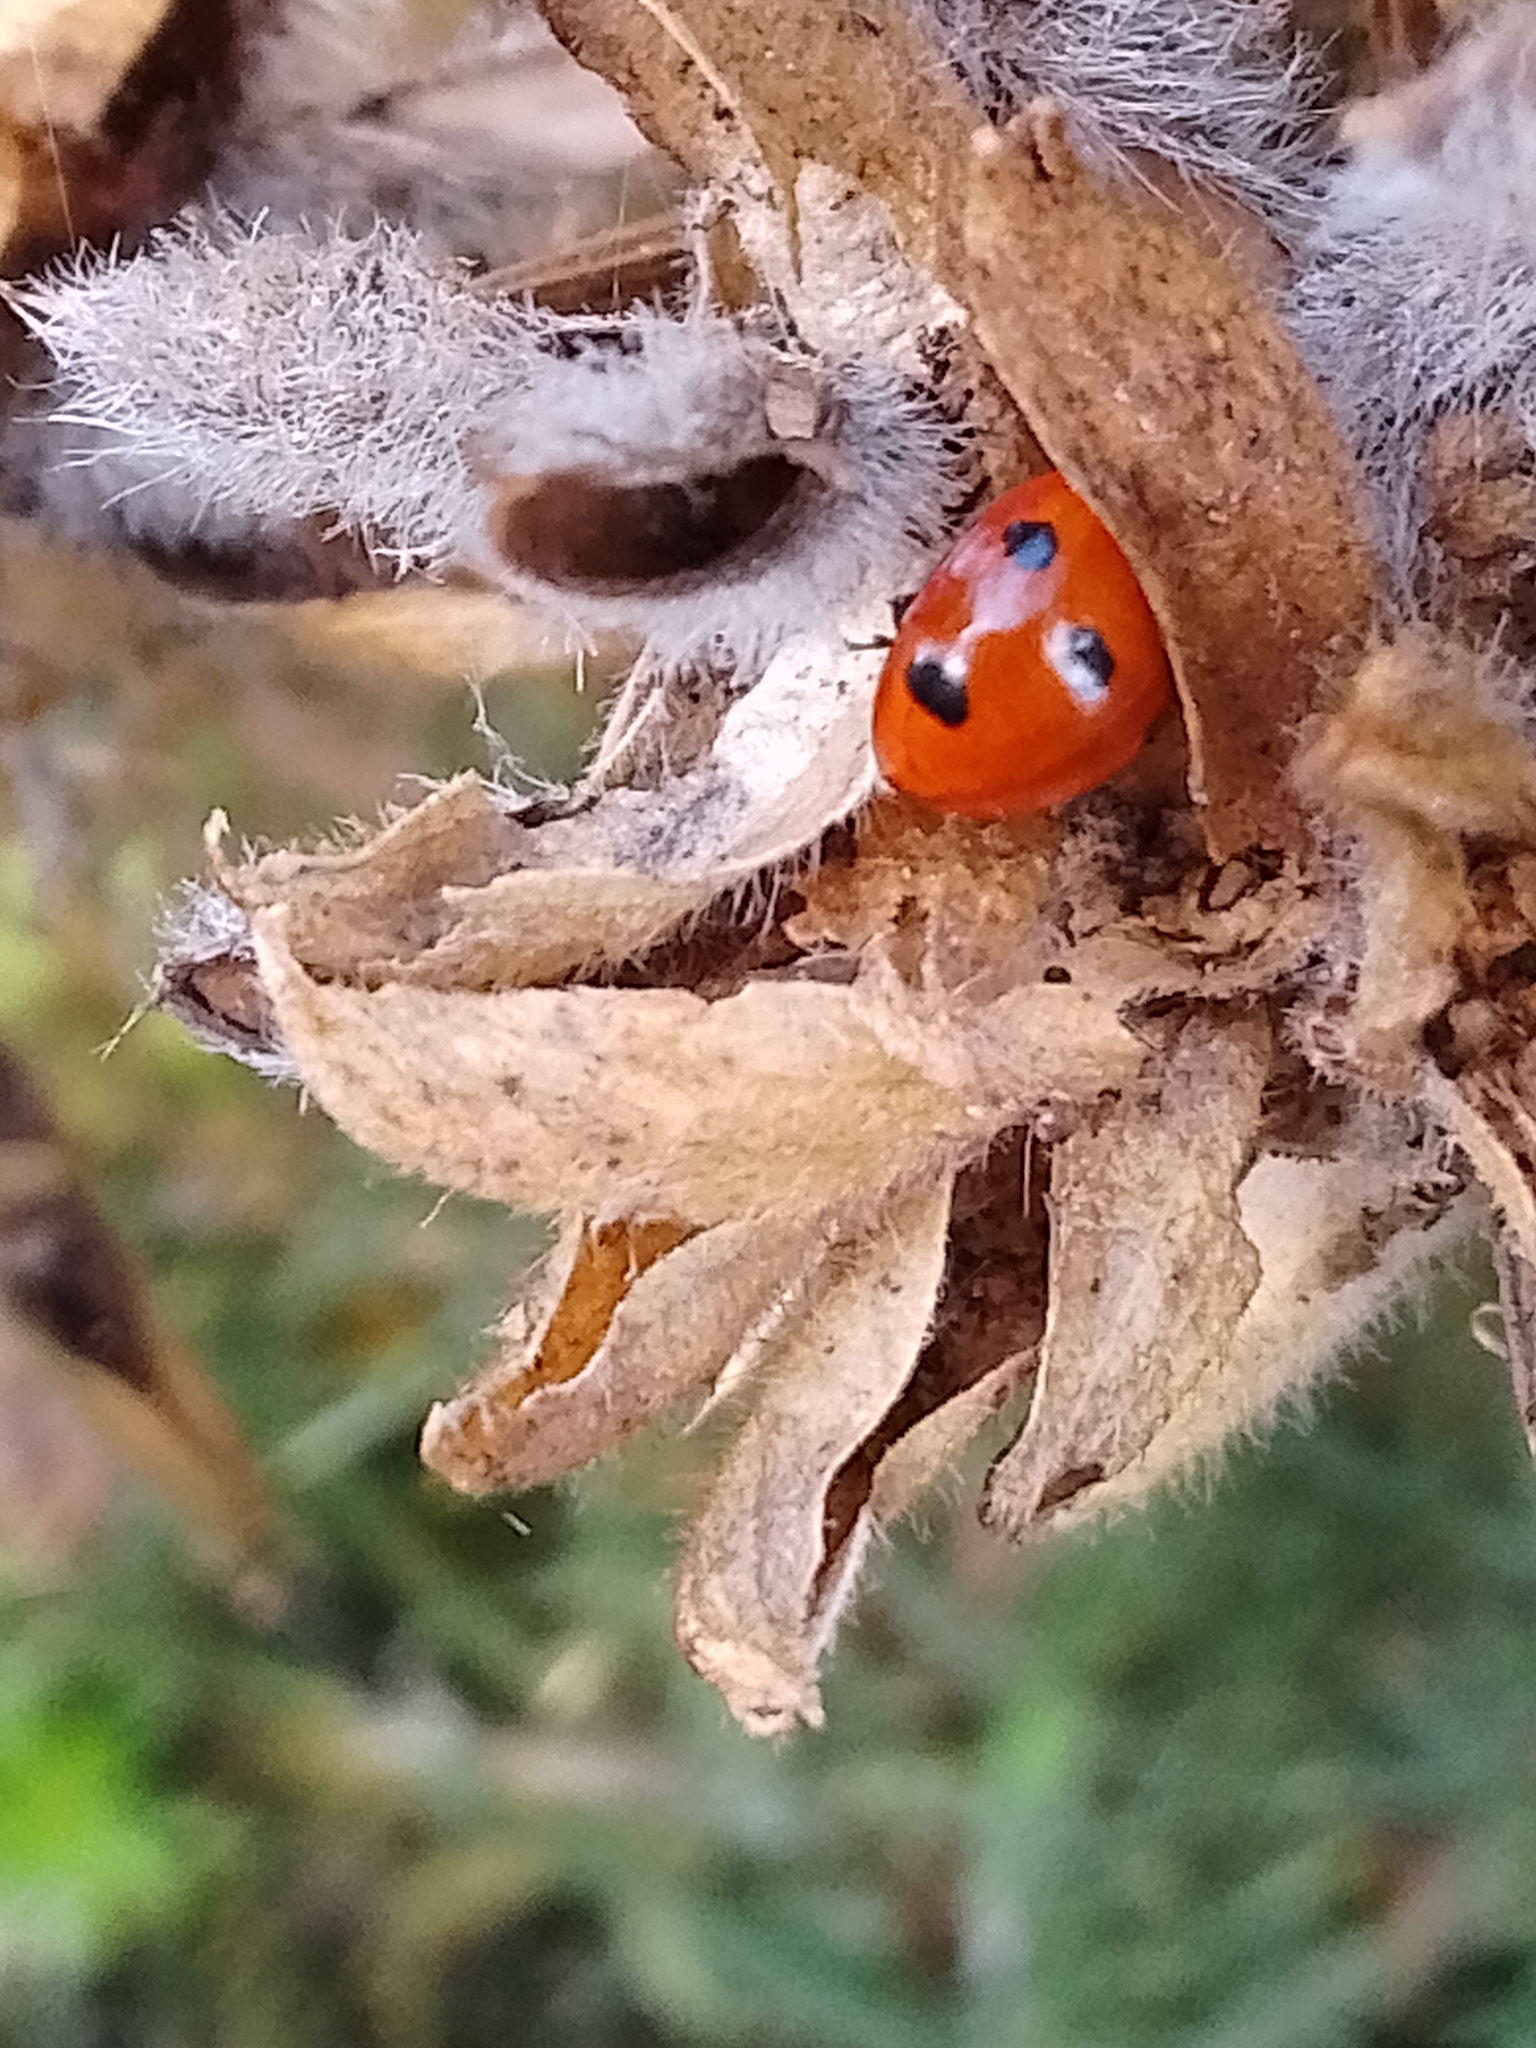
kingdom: Animalia
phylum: Arthropoda
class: Insecta
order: Coleoptera
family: Coccinellidae
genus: Coccinella
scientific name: Coccinella septempunctata
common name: Sevenspotted lady beetle
